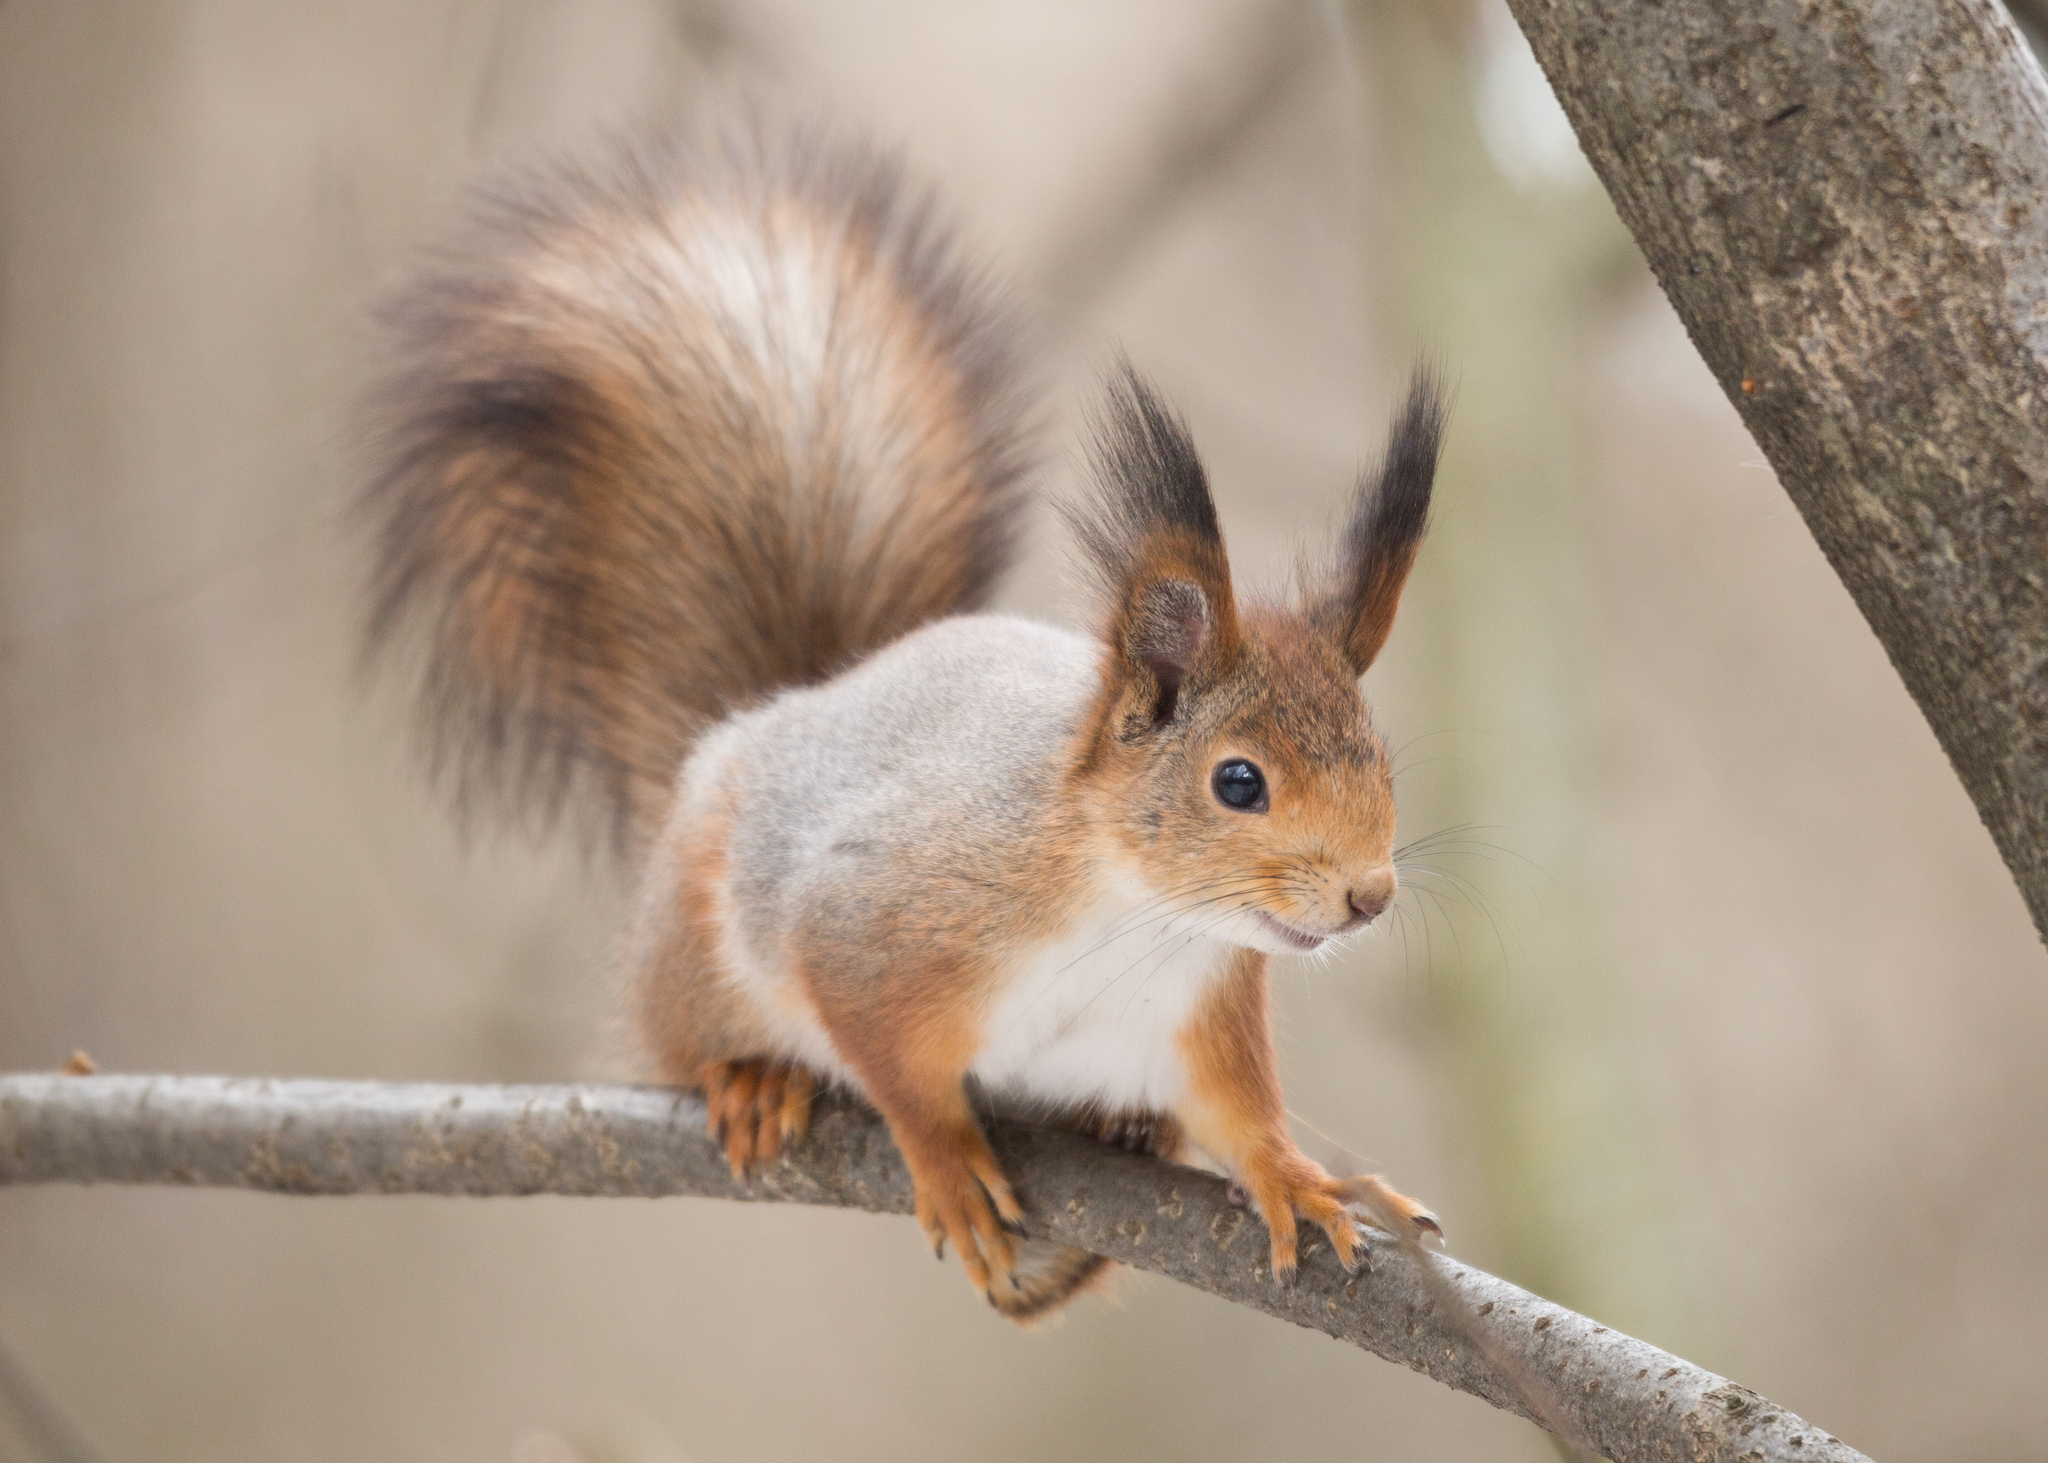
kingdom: Animalia
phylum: Chordata
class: Mammalia
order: Rodentia
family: Sciuridae
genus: Sciurus
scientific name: Sciurus vulgaris
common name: Eurasian red squirrel
